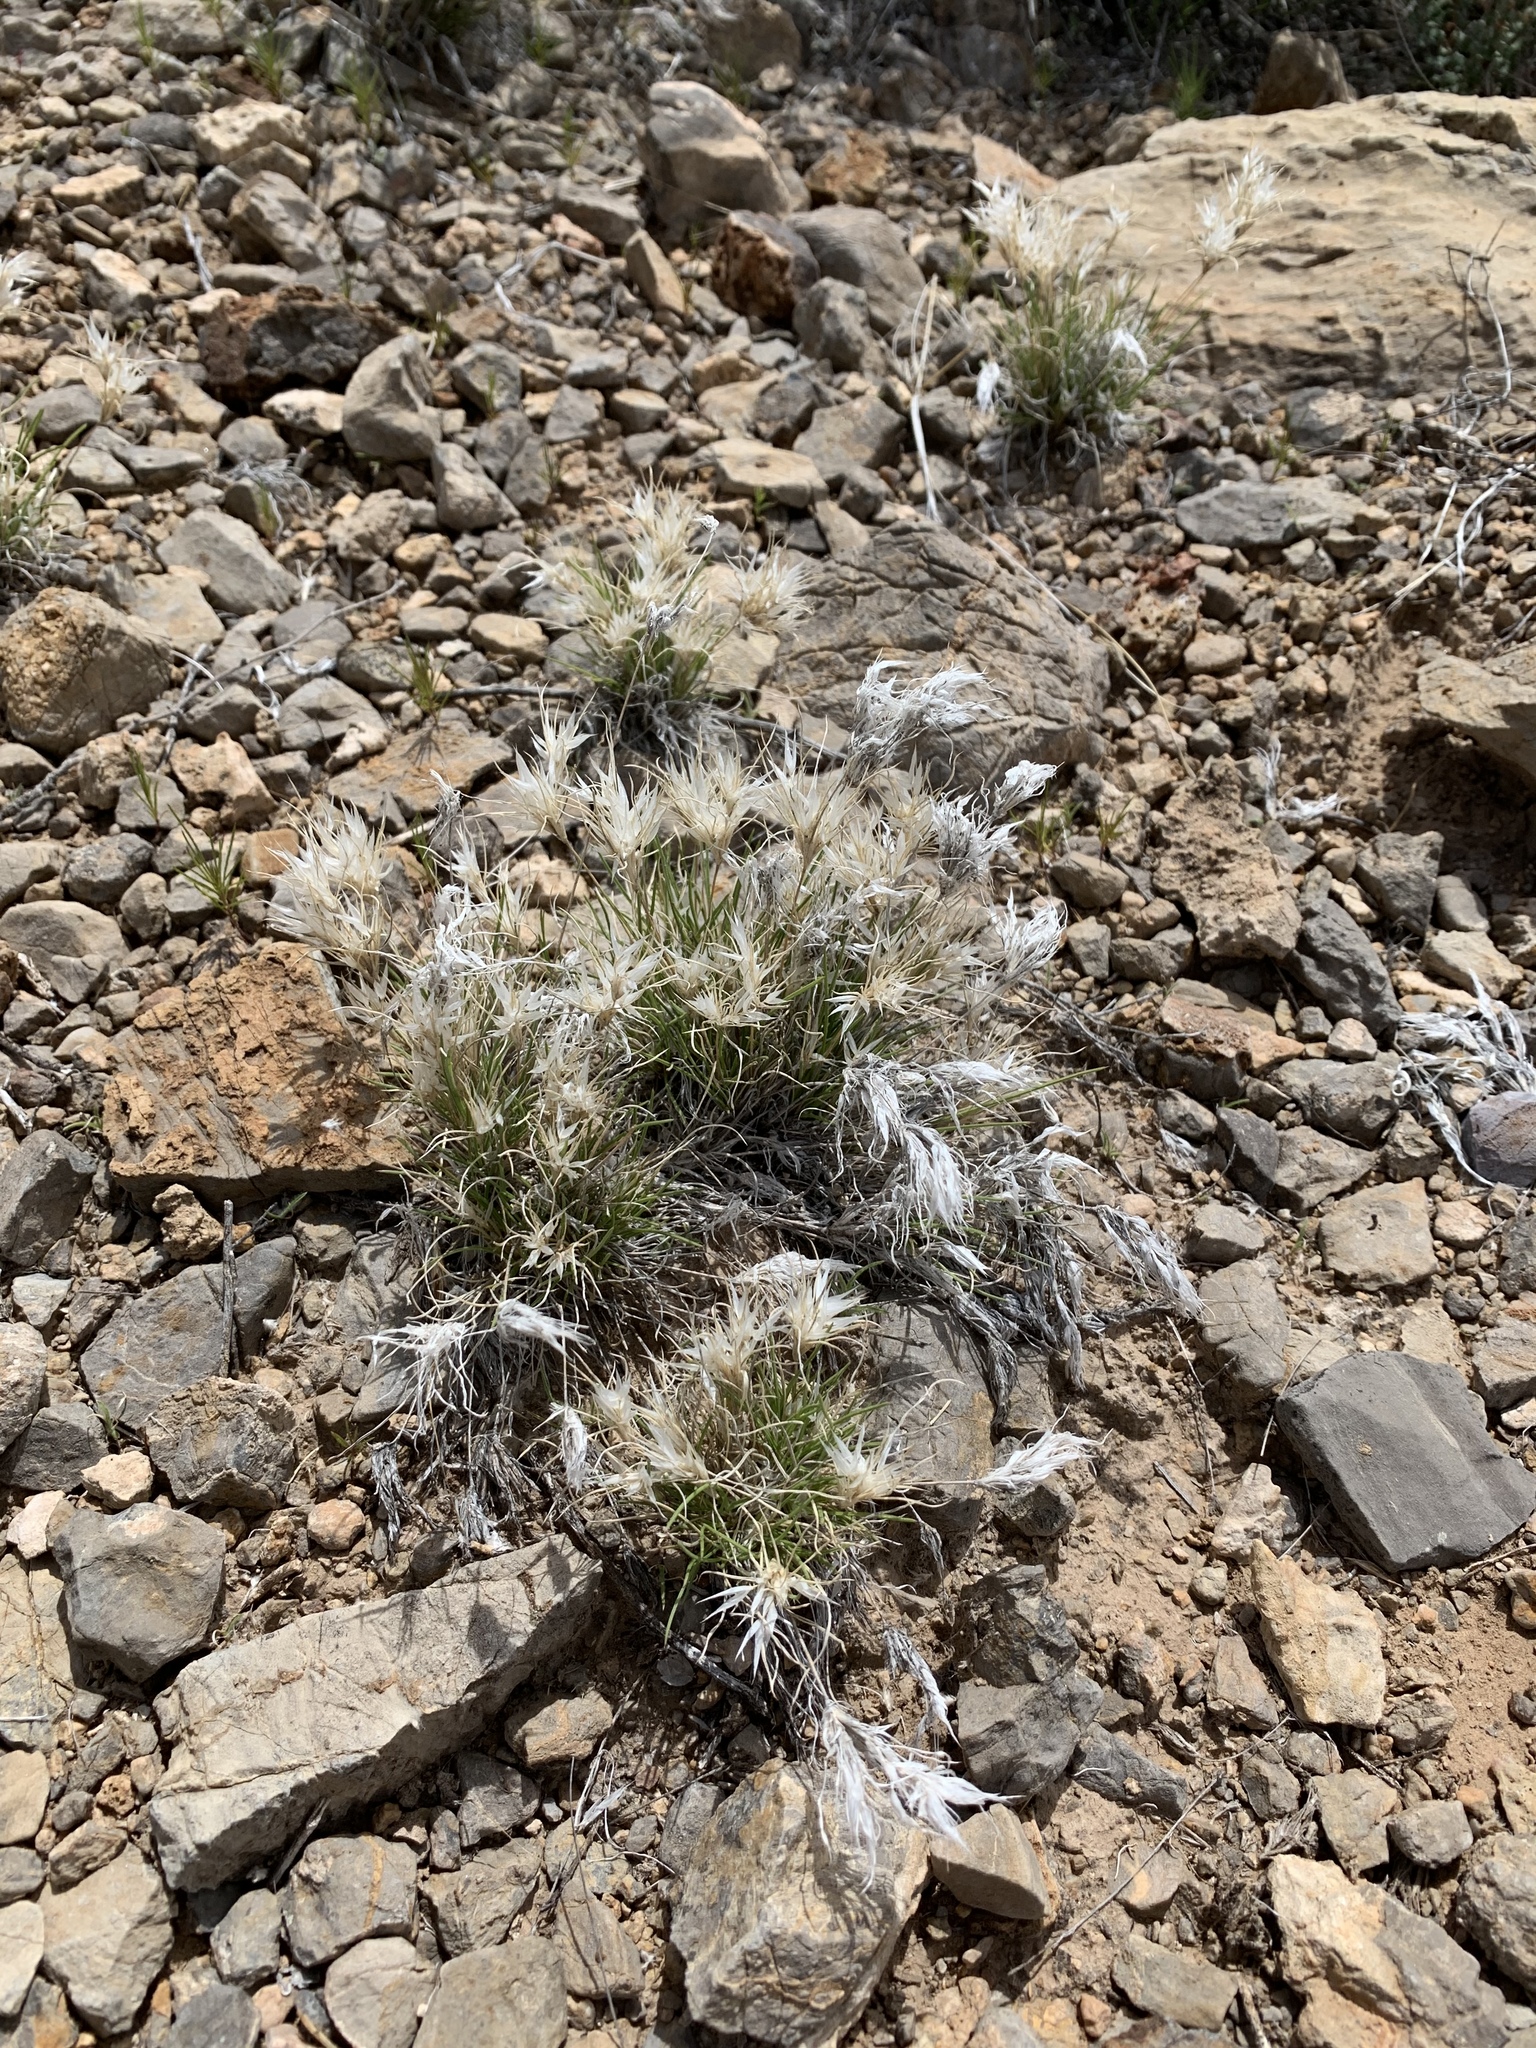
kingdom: Plantae
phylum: Tracheophyta
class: Liliopsida
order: Poales
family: Poaceae
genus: Dasyochloa
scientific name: Dasyochloa pulchella
